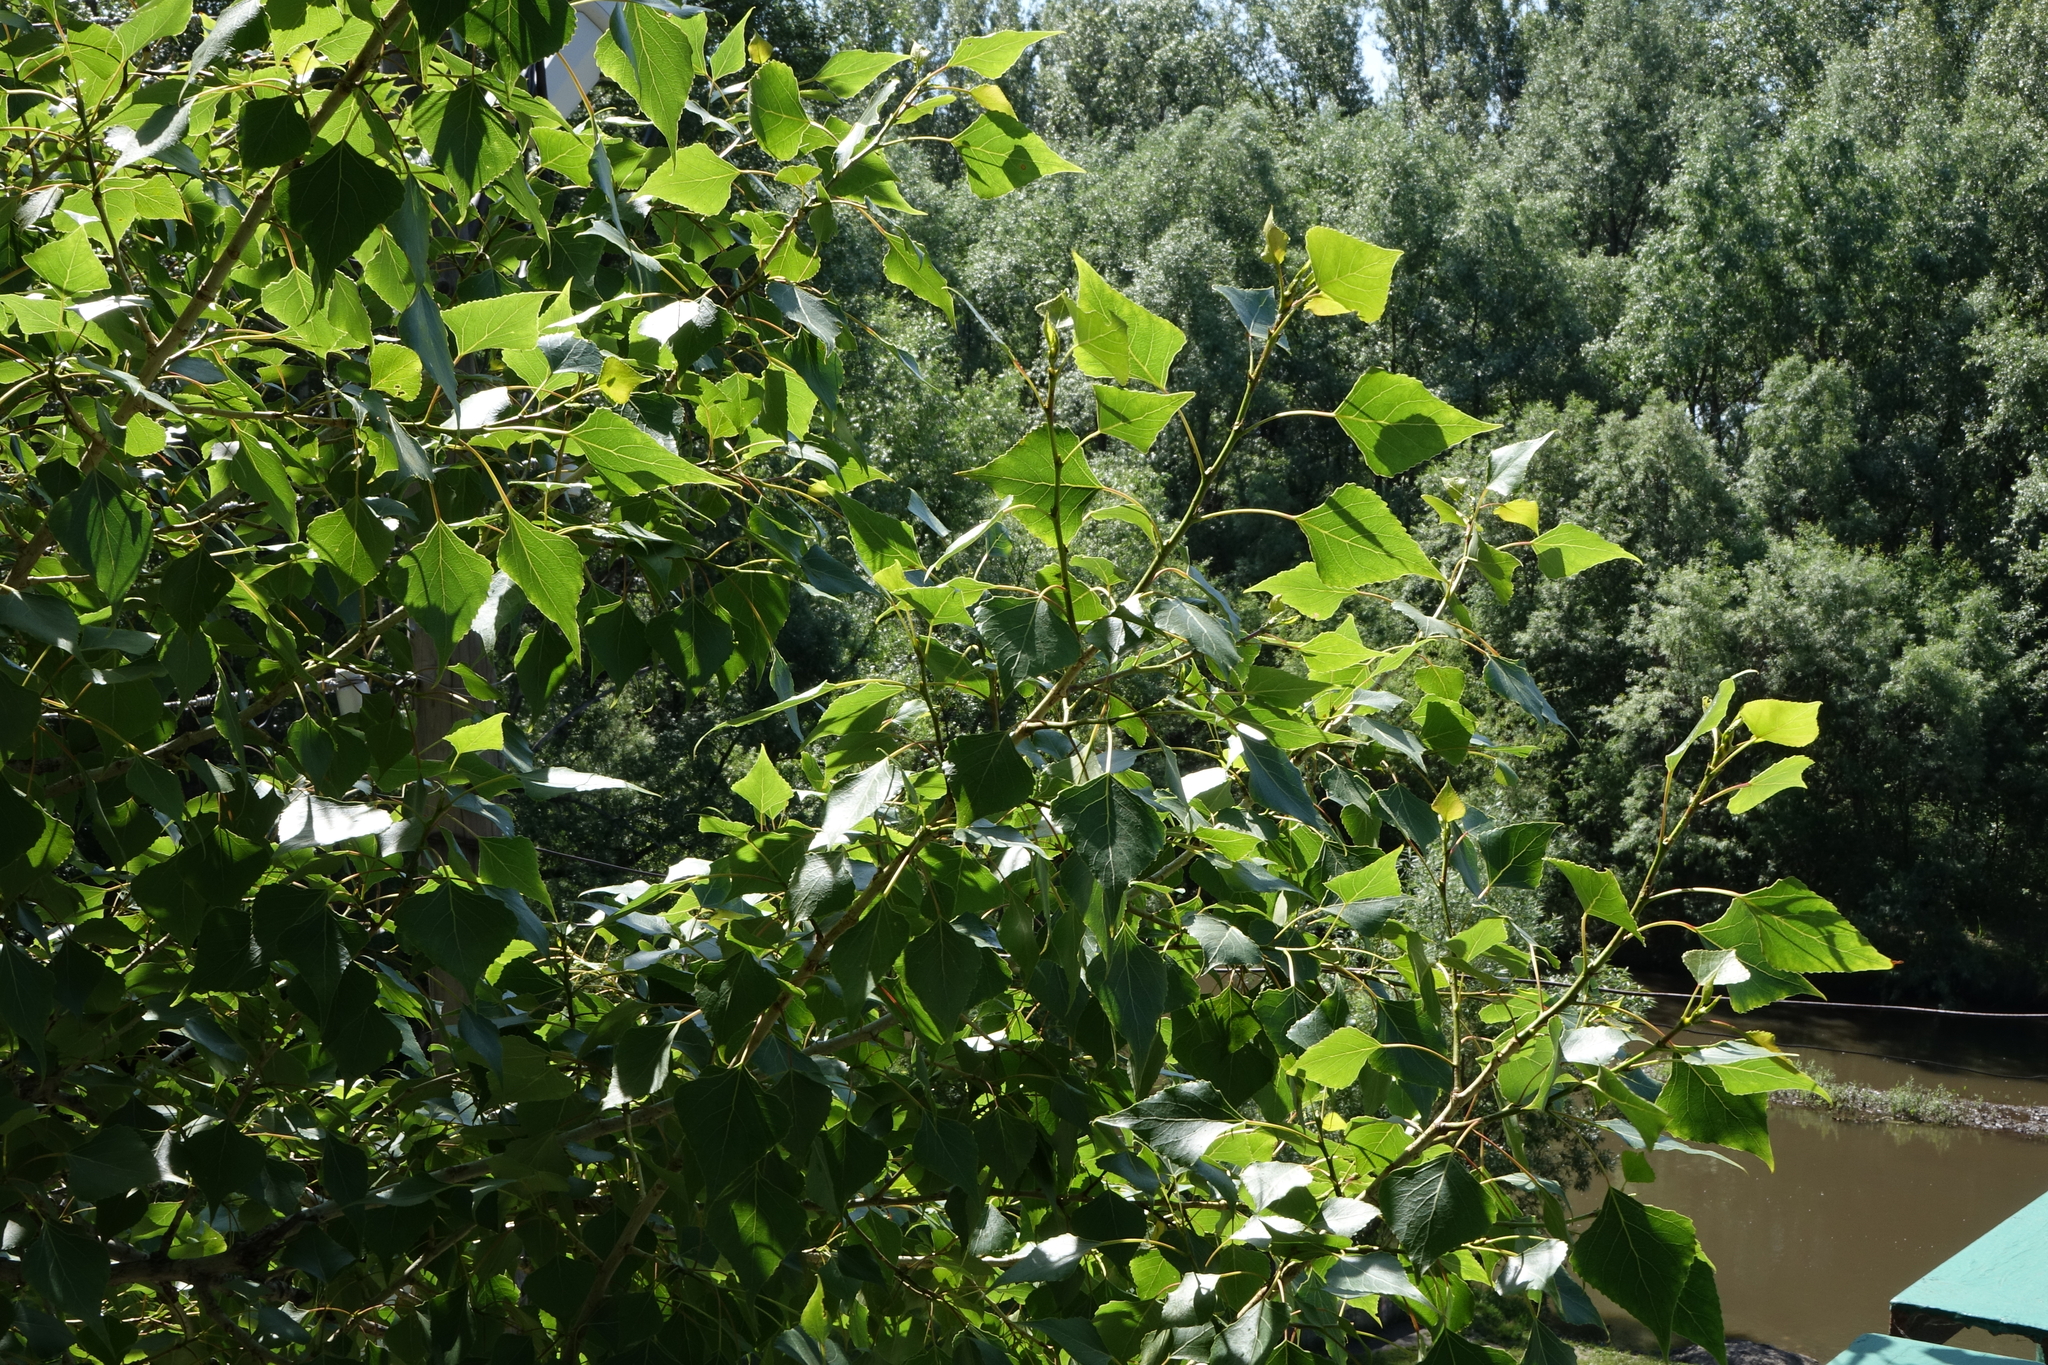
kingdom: Plantae
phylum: Tracheophyta
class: Magnoliopsida
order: Malpighiales
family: Salicaceae
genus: Populus
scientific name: Populus nigra
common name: Black poplar
